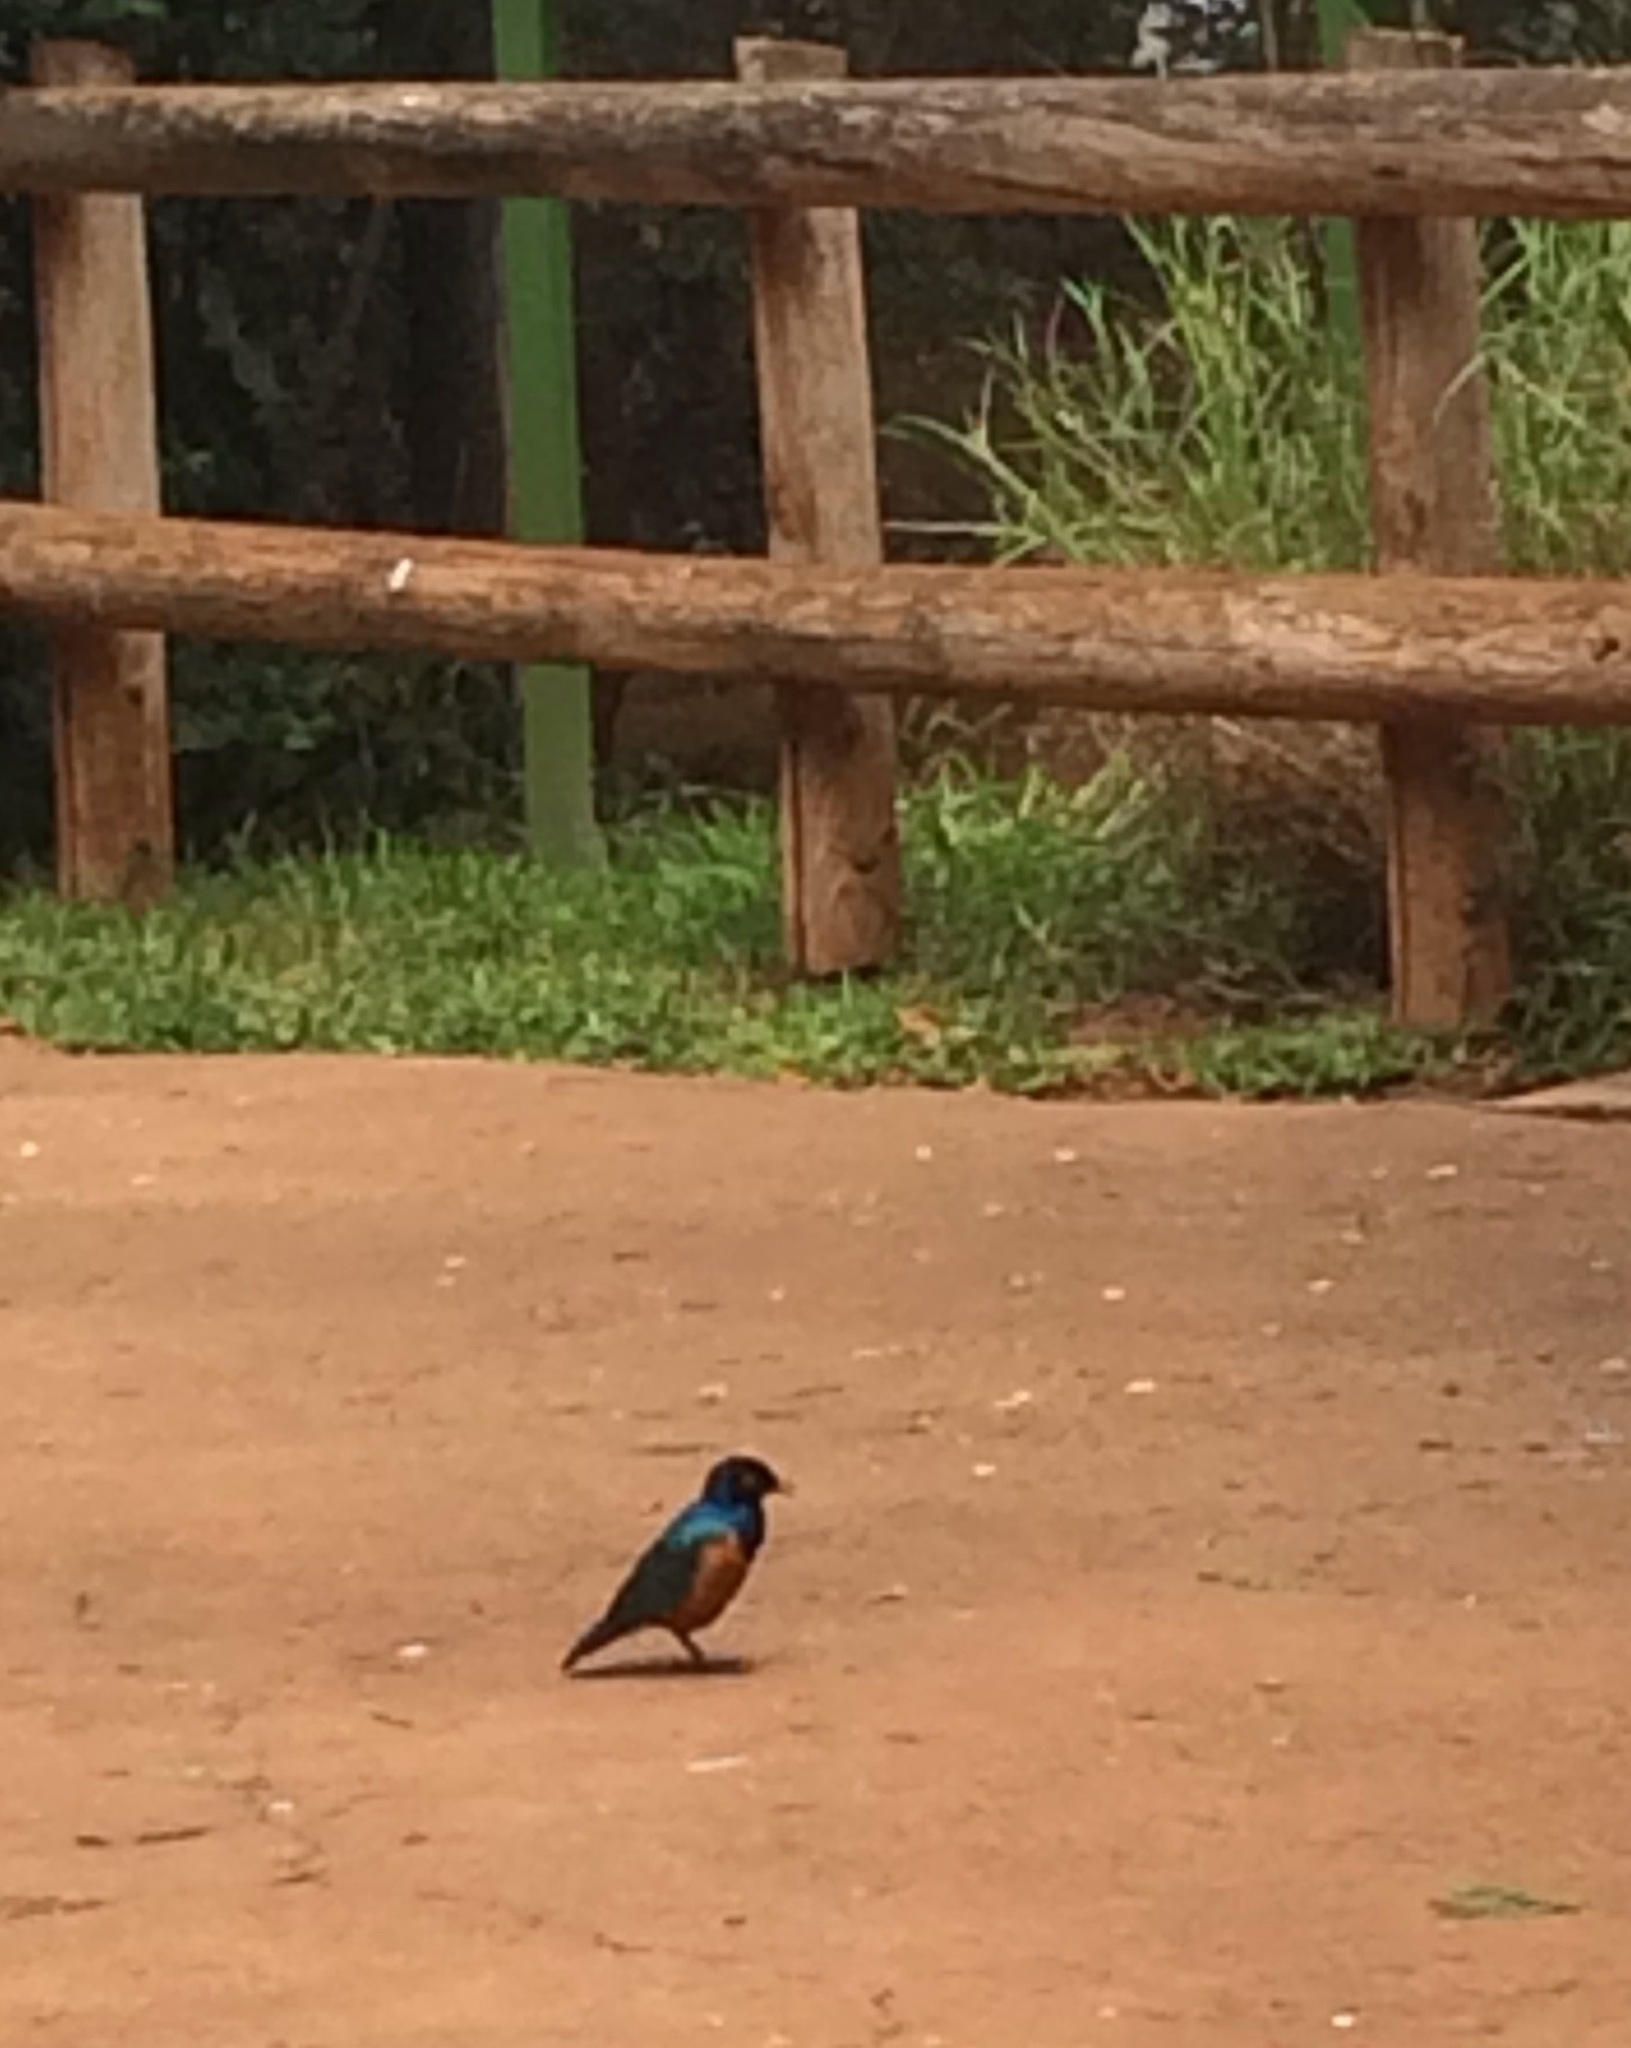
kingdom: Animalia
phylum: Chordata
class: Aves
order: Passeriformes
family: Sturnidae
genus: Lamprotornis
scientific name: Lamprotornis superbus
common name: Superb starling
